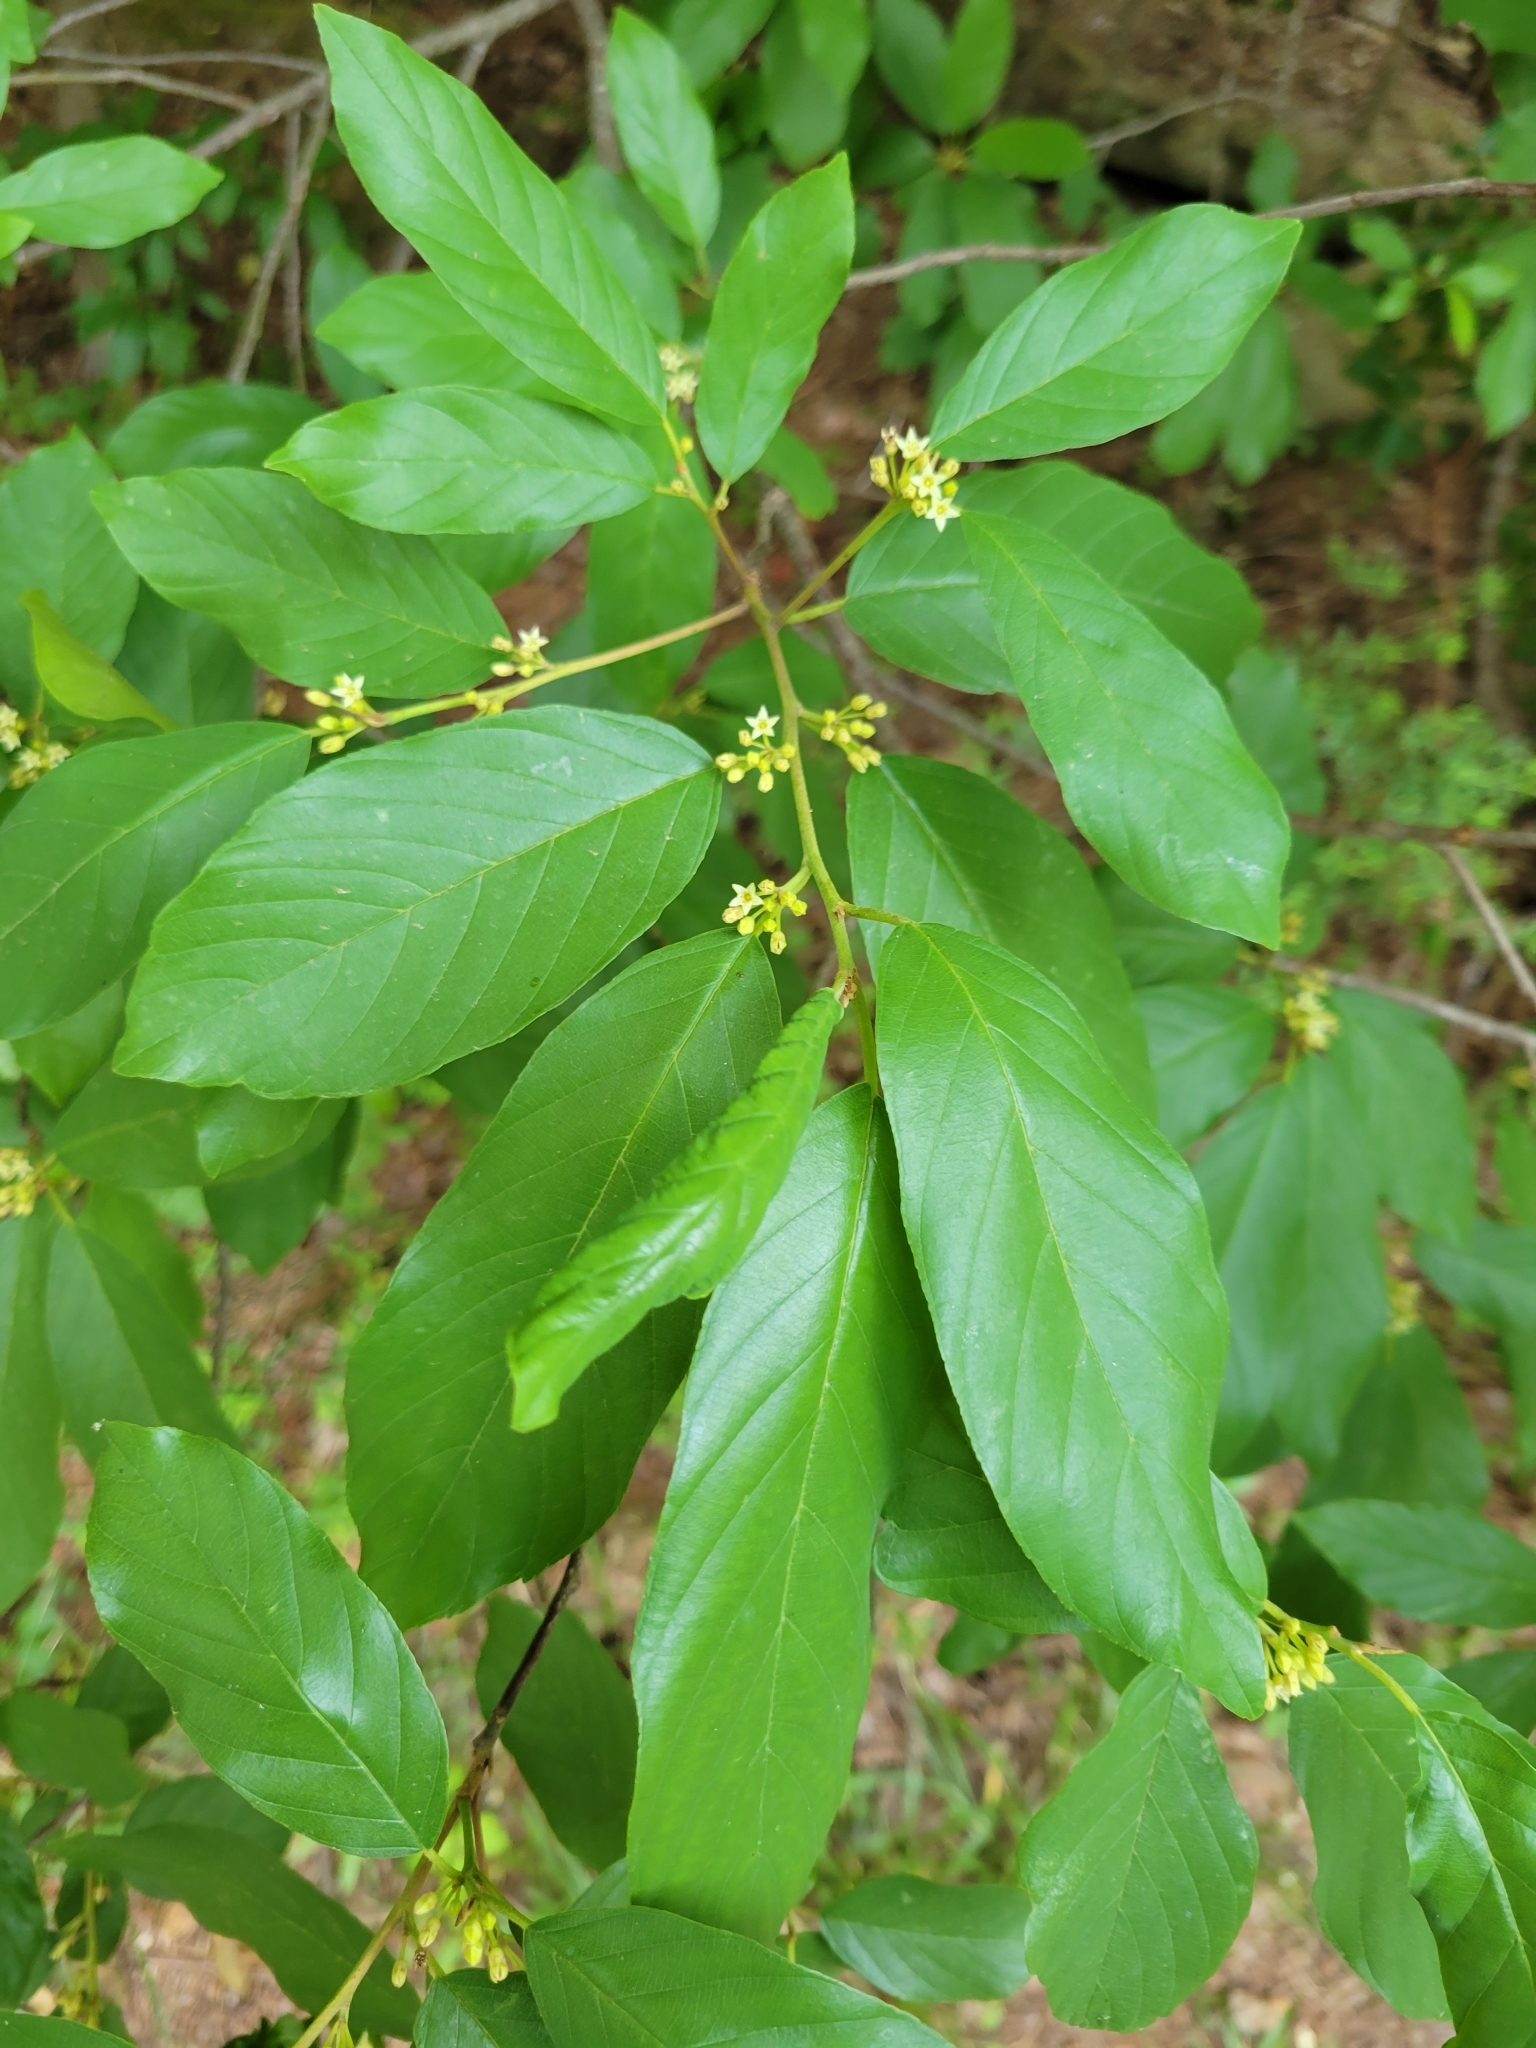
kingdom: Plantae
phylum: Tracheophyta
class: Magnoliopsida
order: Rosales
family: Rhamnaceae
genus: Frangula
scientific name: Frangula caroliniana
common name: Carolina buckthorn
